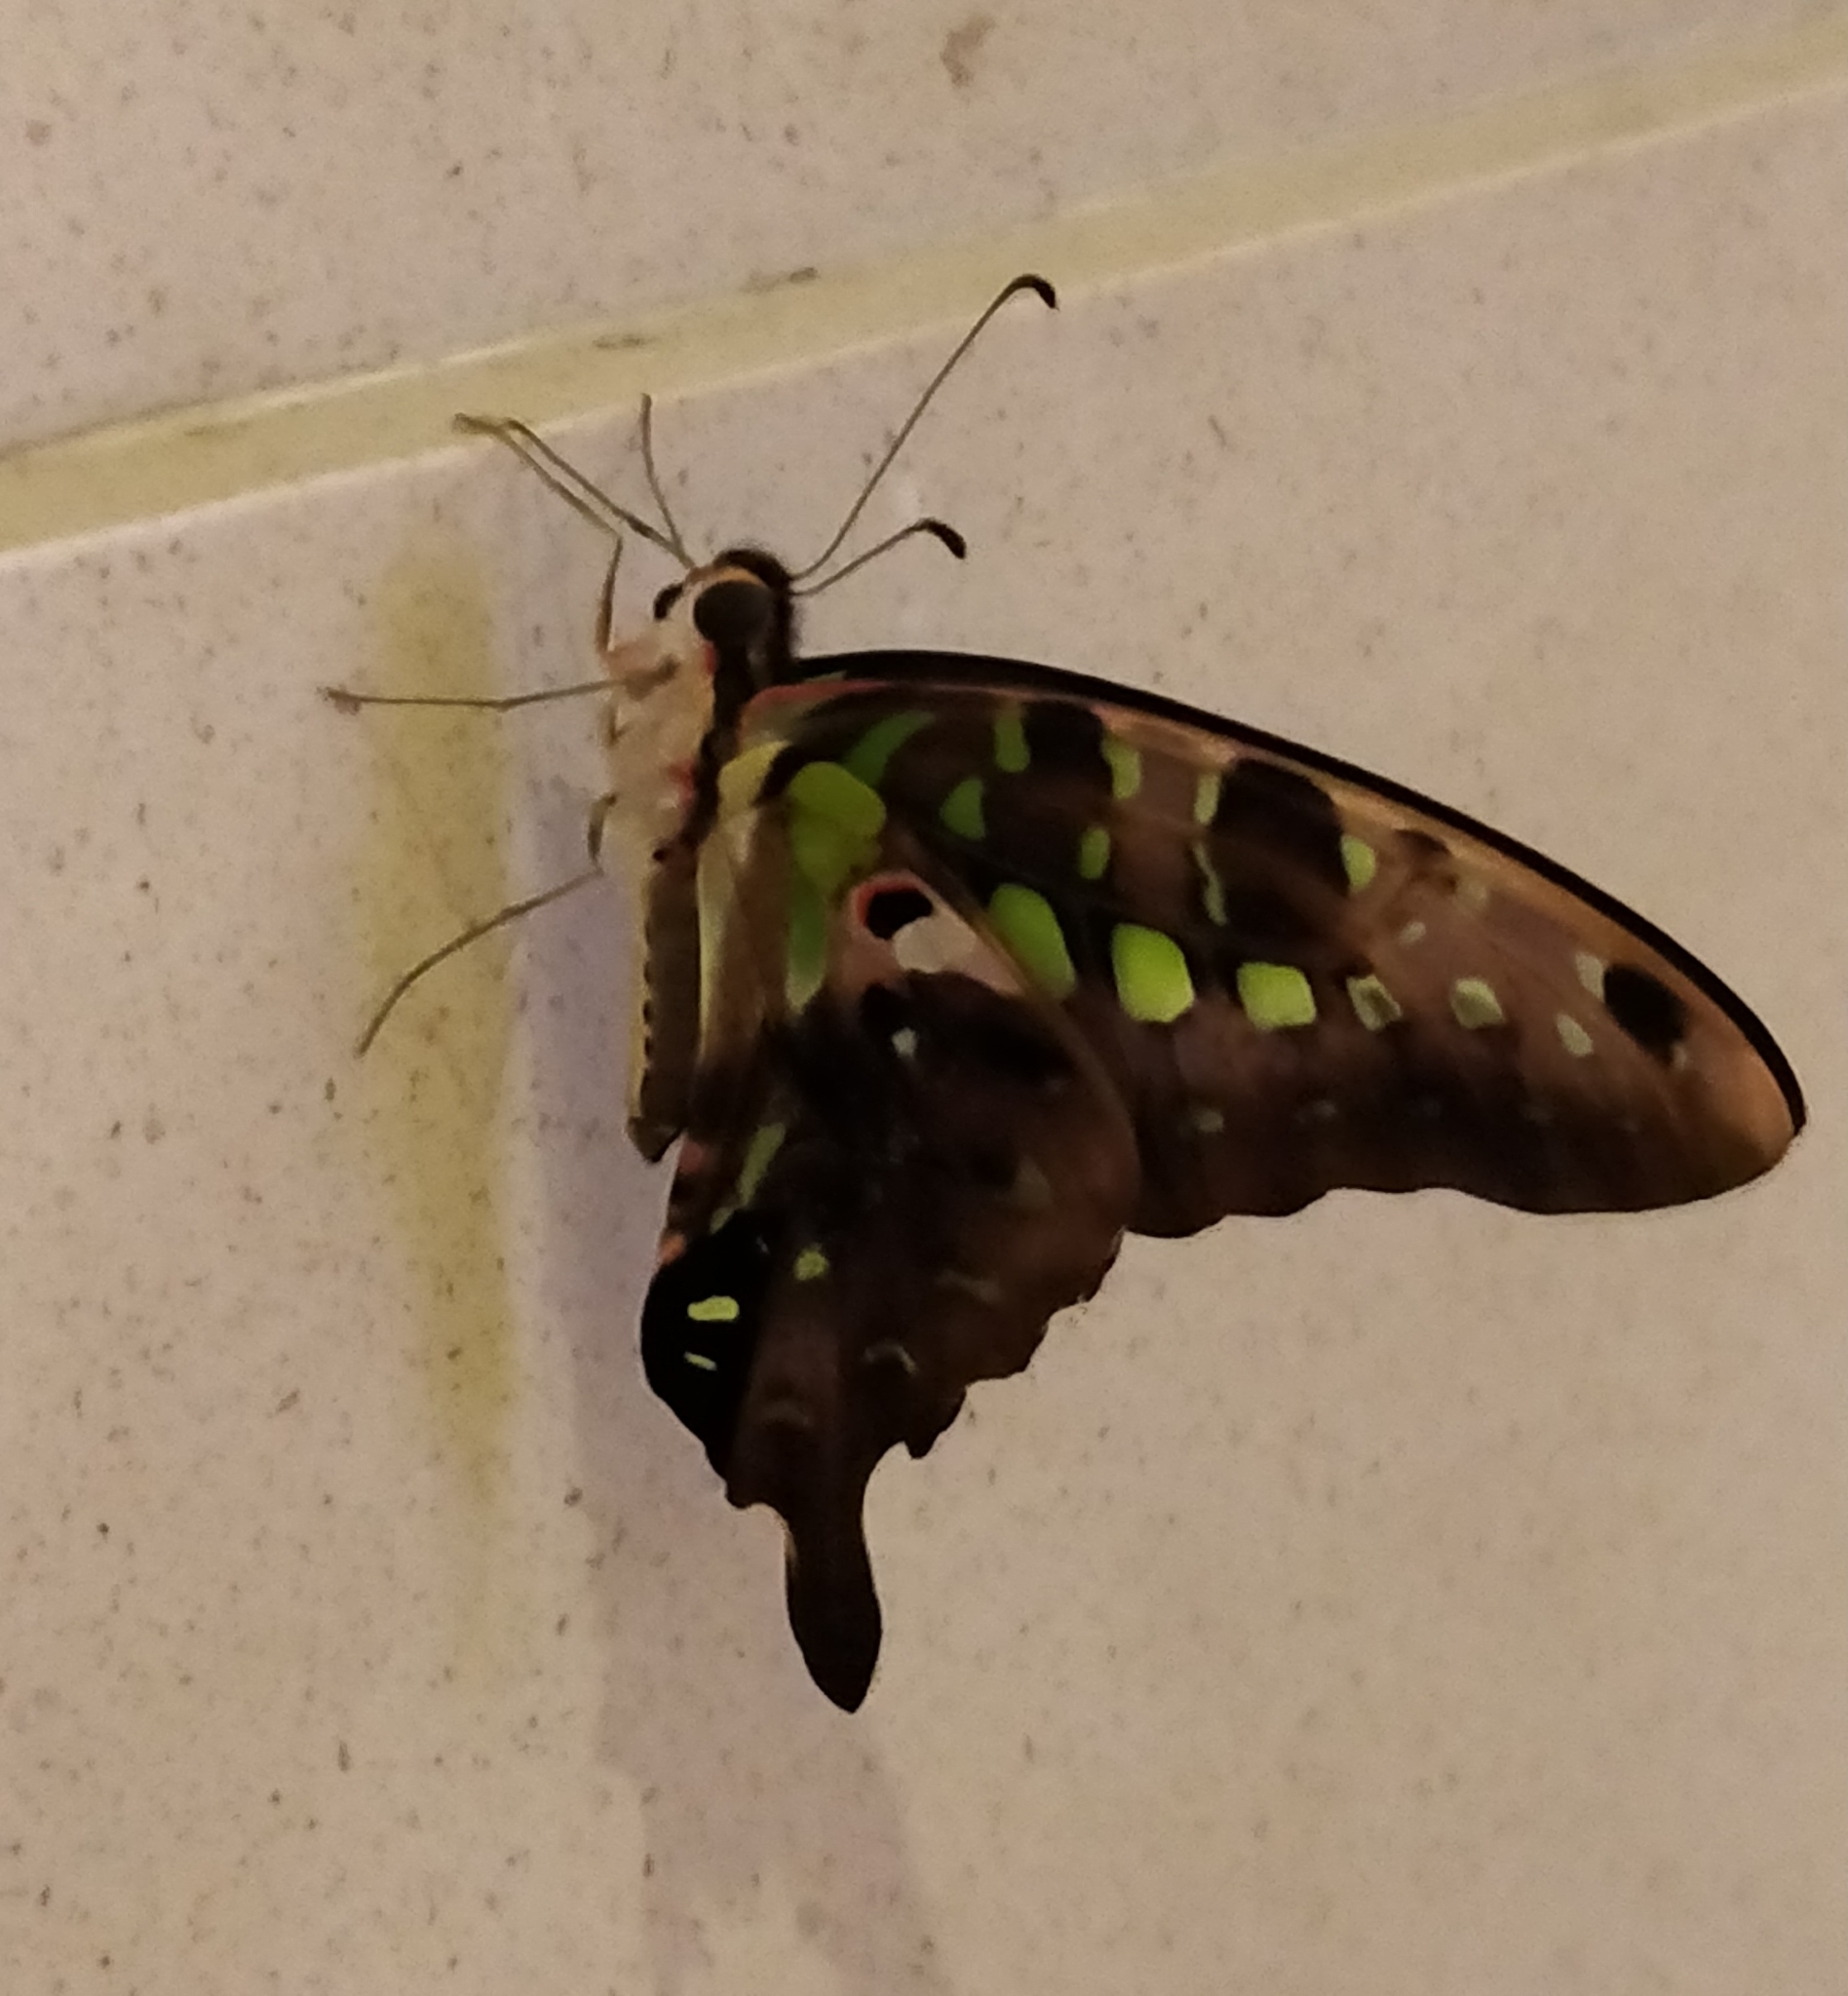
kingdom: Animalia
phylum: Arthropoda
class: Insecta
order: Lepidoptera
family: Papilionidae
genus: Graphium
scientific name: Graphium agamemnon
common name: Tailed jay
